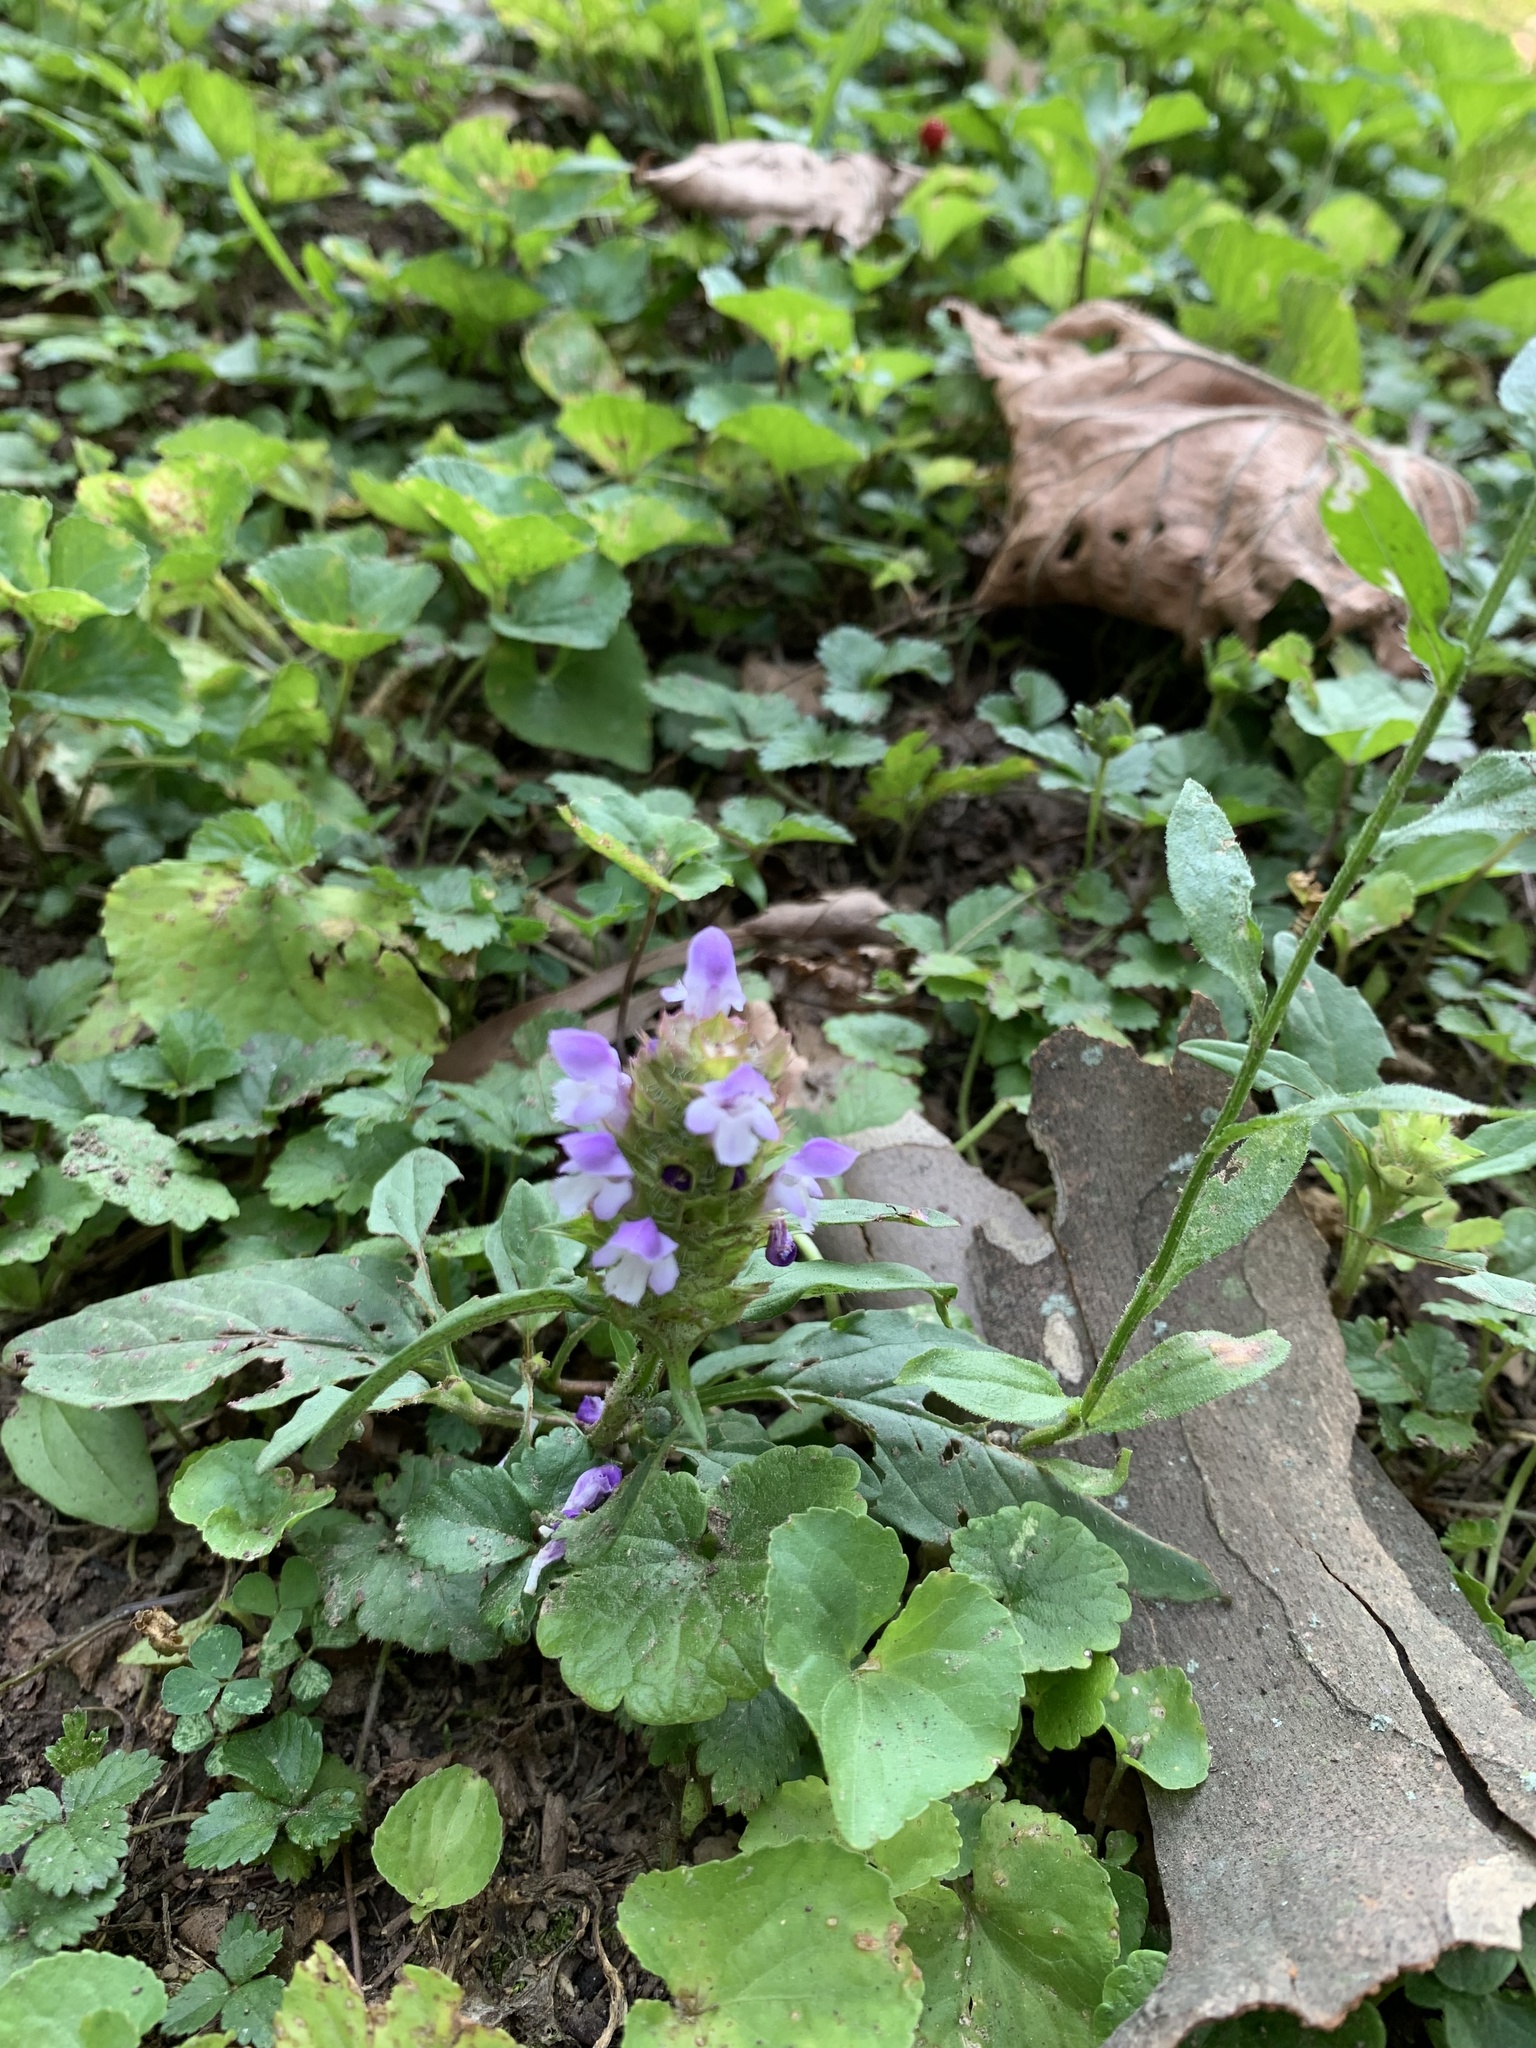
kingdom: Plantae
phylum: Tracheophyta
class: Magnoliopsida
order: Lamiales
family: Lamiaceae
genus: Prunella
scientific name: Prunella vulgaris
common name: Heal-all
